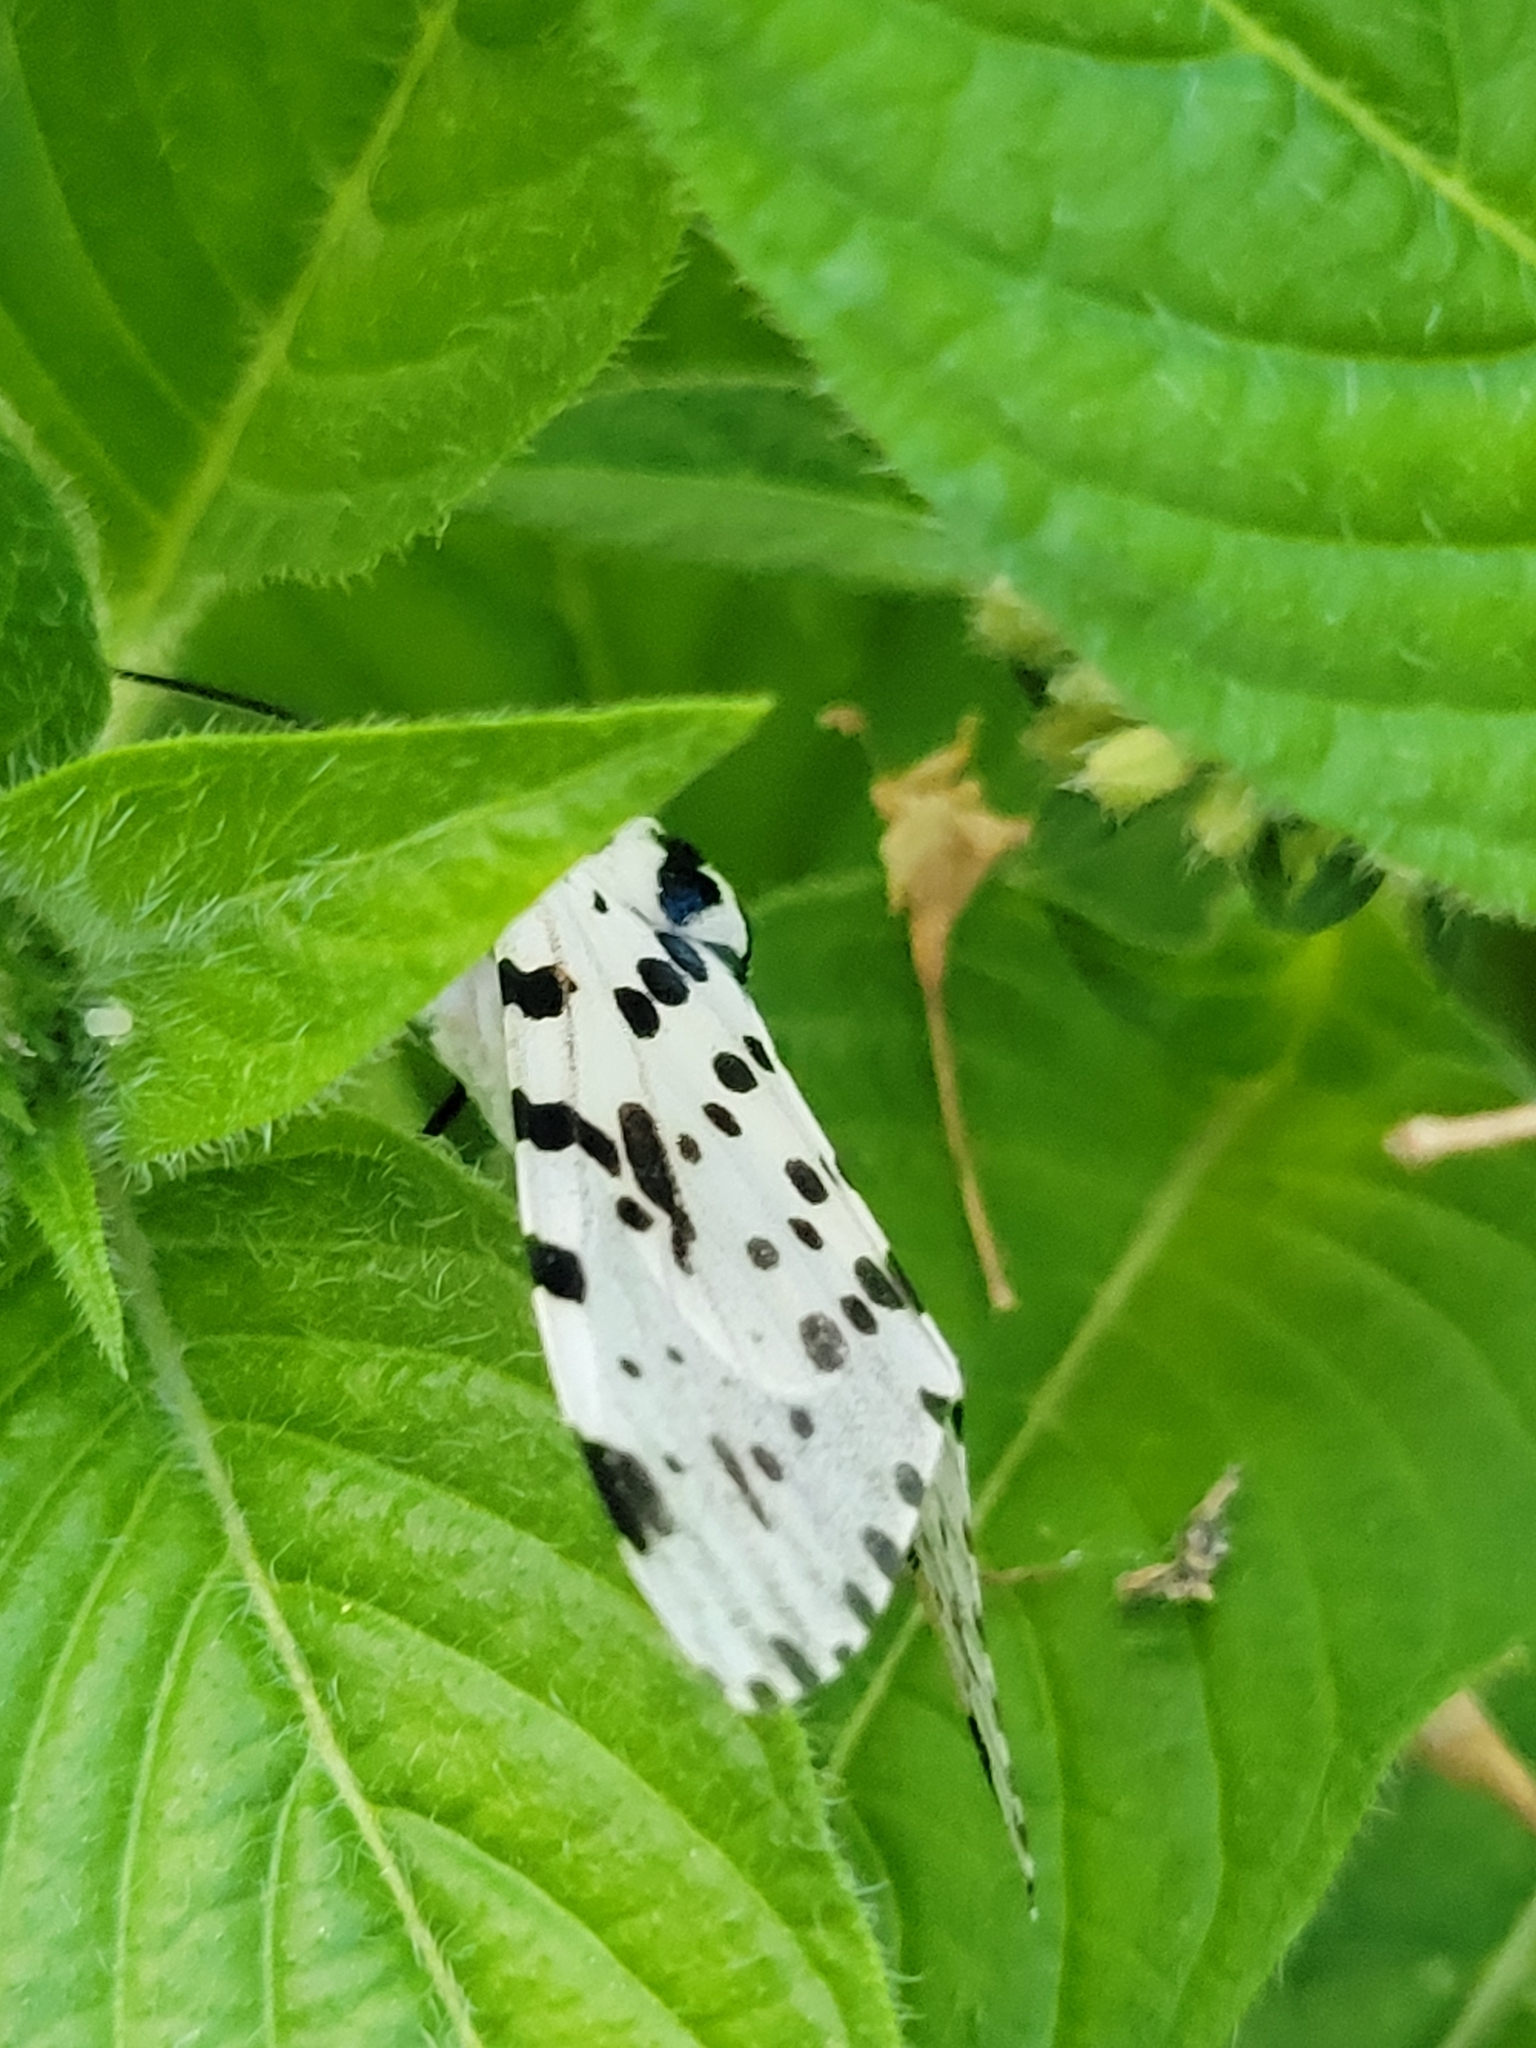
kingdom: Animalia
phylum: Arthropoda
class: Insecta
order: Lepidoptera
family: Erebidae
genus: Hypercompe
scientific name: Hypercompe scribonia
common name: Giant leopard moth
